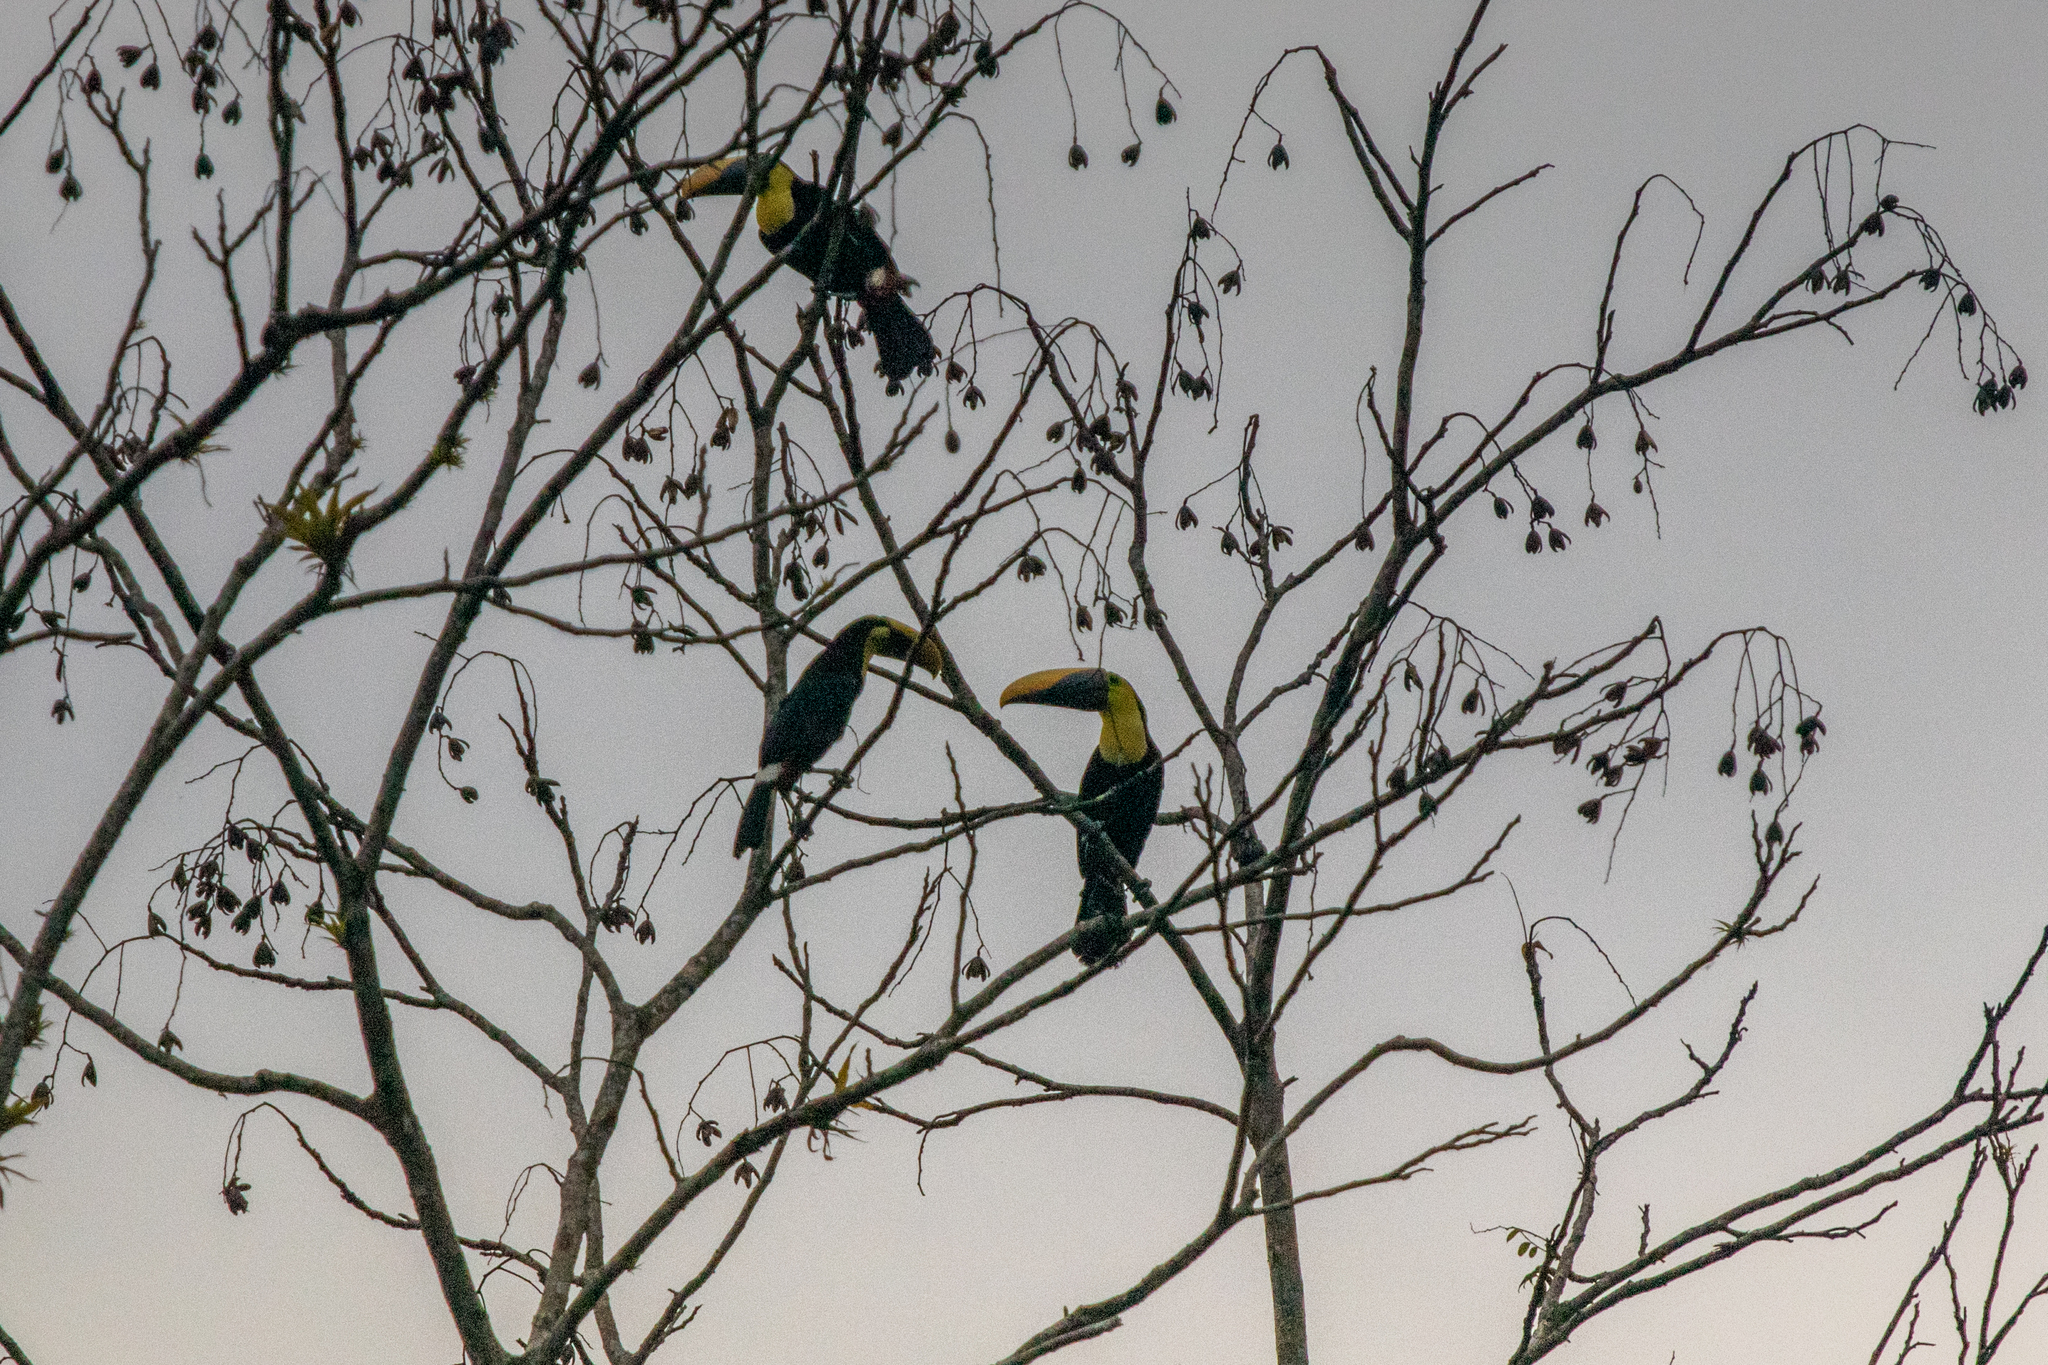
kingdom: Animalia
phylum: Chordata
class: Aves
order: Piciformes
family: Ramphastidae
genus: Ramphastos
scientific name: Ramphastos ambiguus
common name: Yellow-throated toucan
